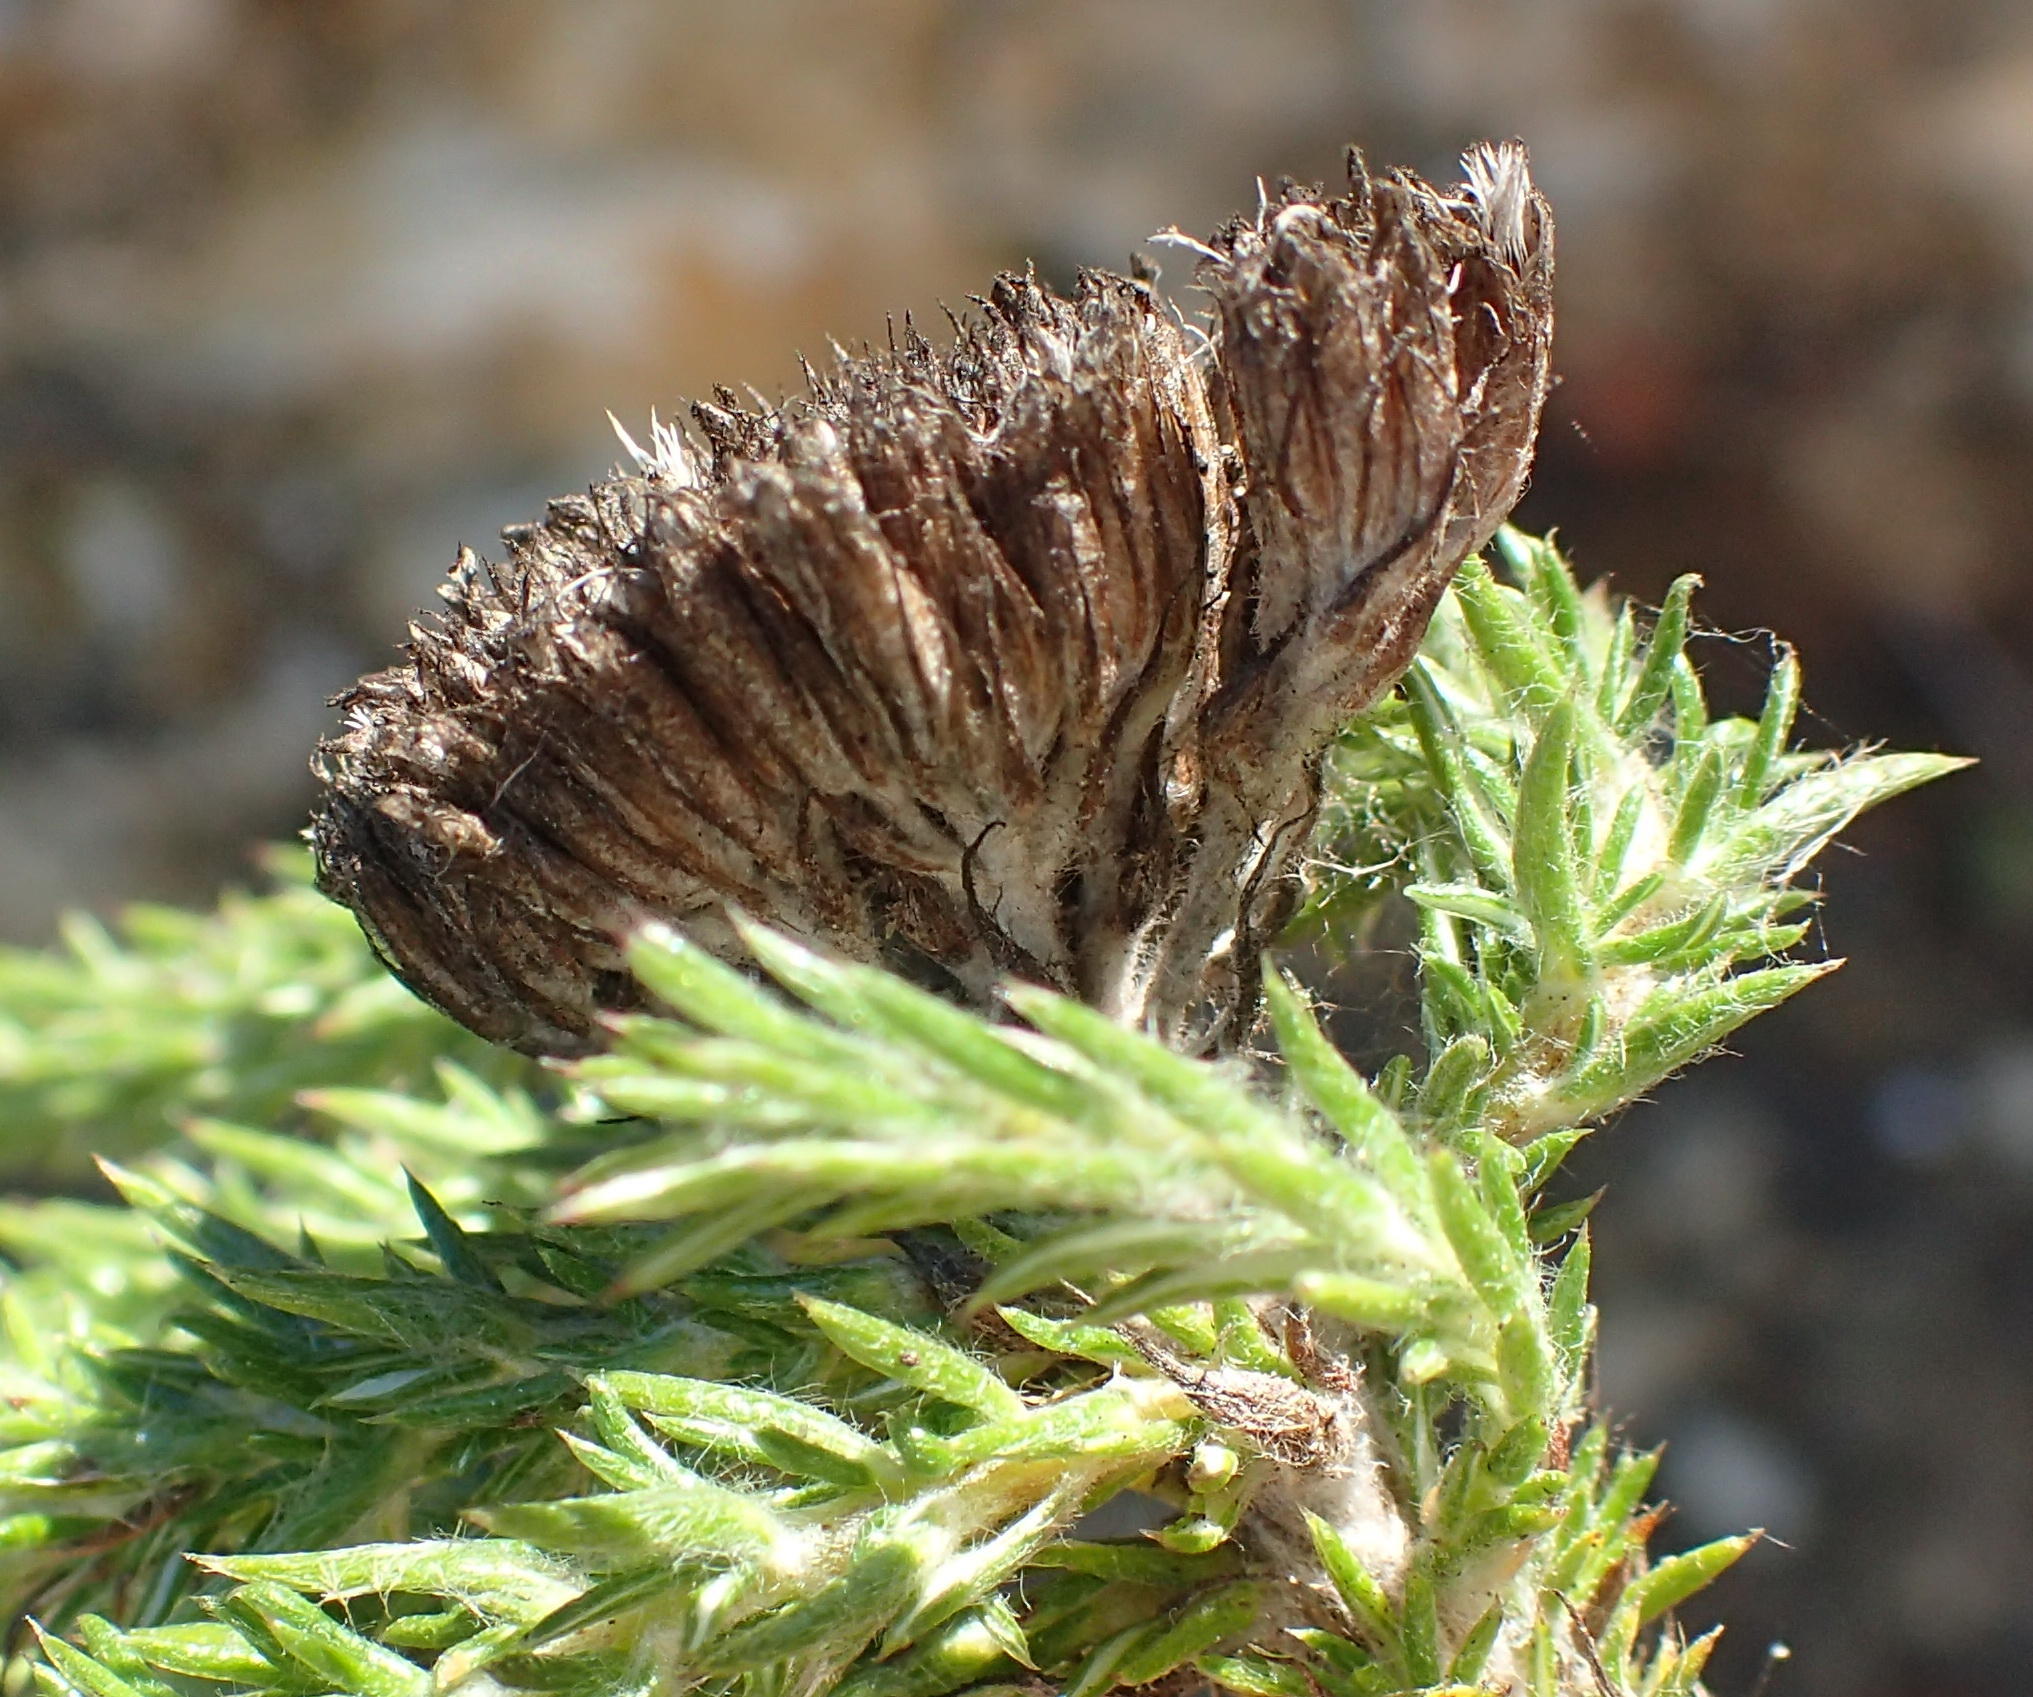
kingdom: Plantae
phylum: Tracheophyta
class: Magnoliopsida
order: Asterales
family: Asteraceae
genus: Metalasia
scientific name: Metalasia pungens
